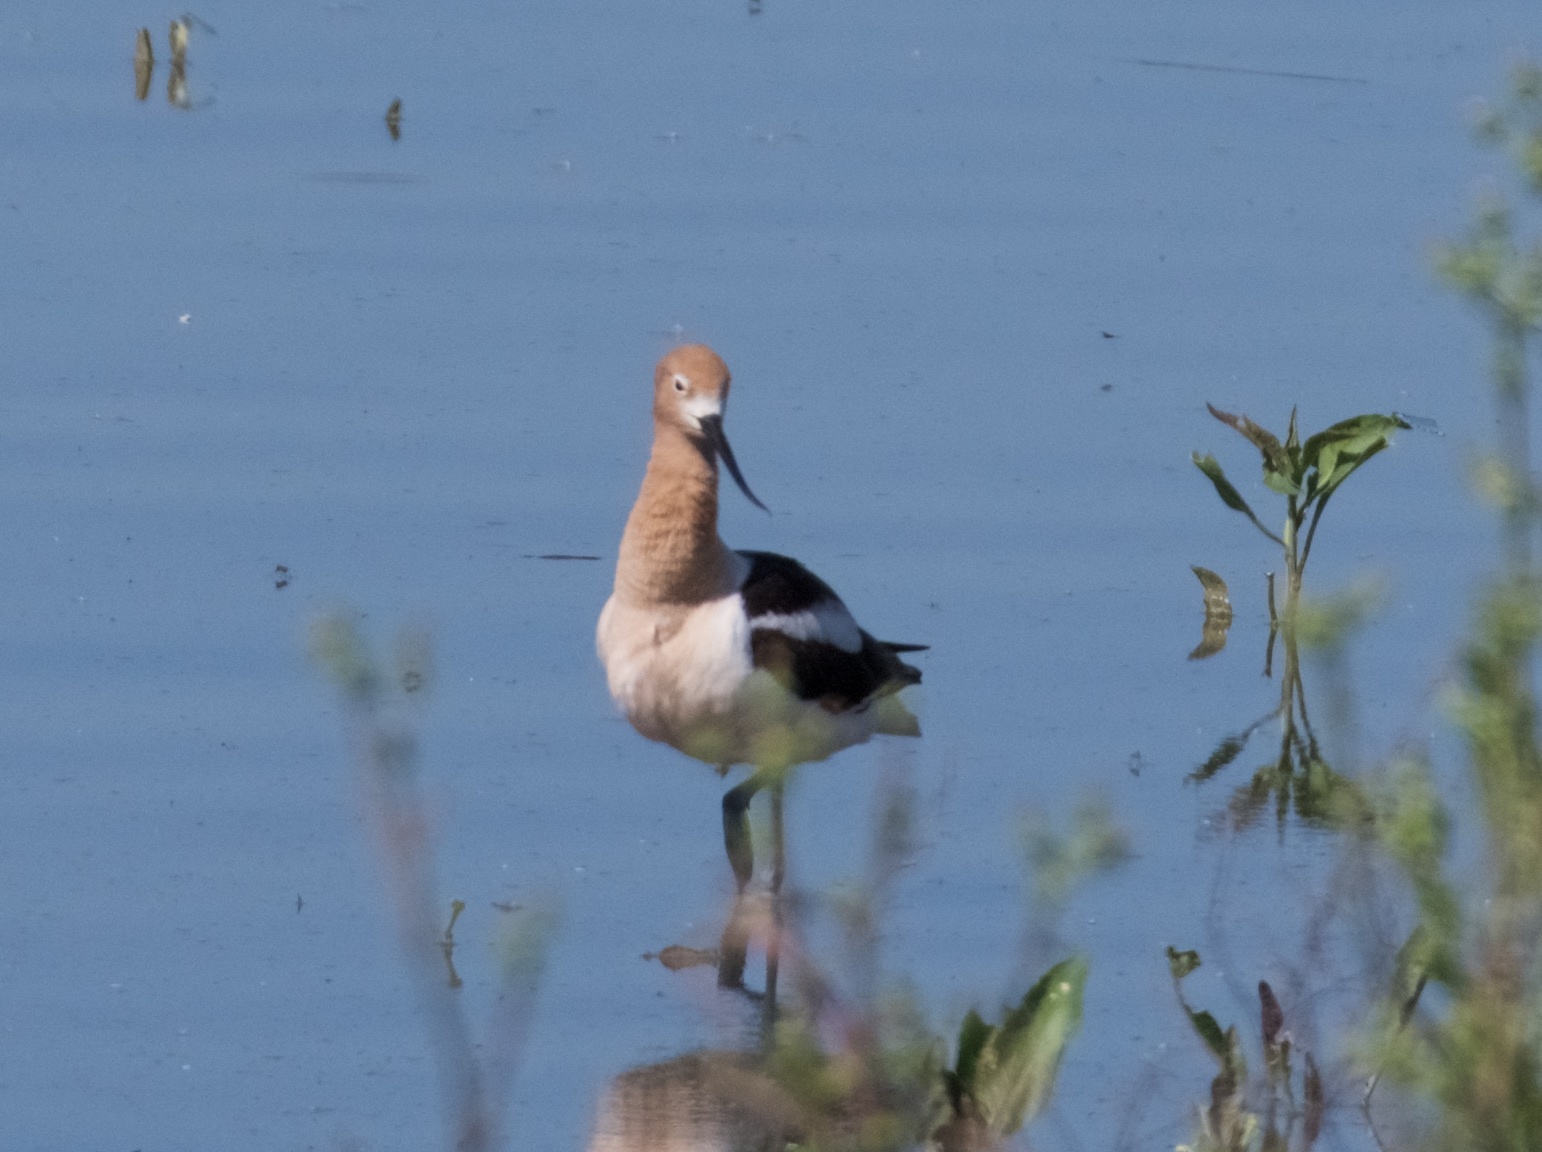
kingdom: Animalia
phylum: Chordata
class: Aves
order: Charadriiformes
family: Recurvirostridae
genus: Recurvirostra
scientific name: Recurvirostra americana
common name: American avocet
